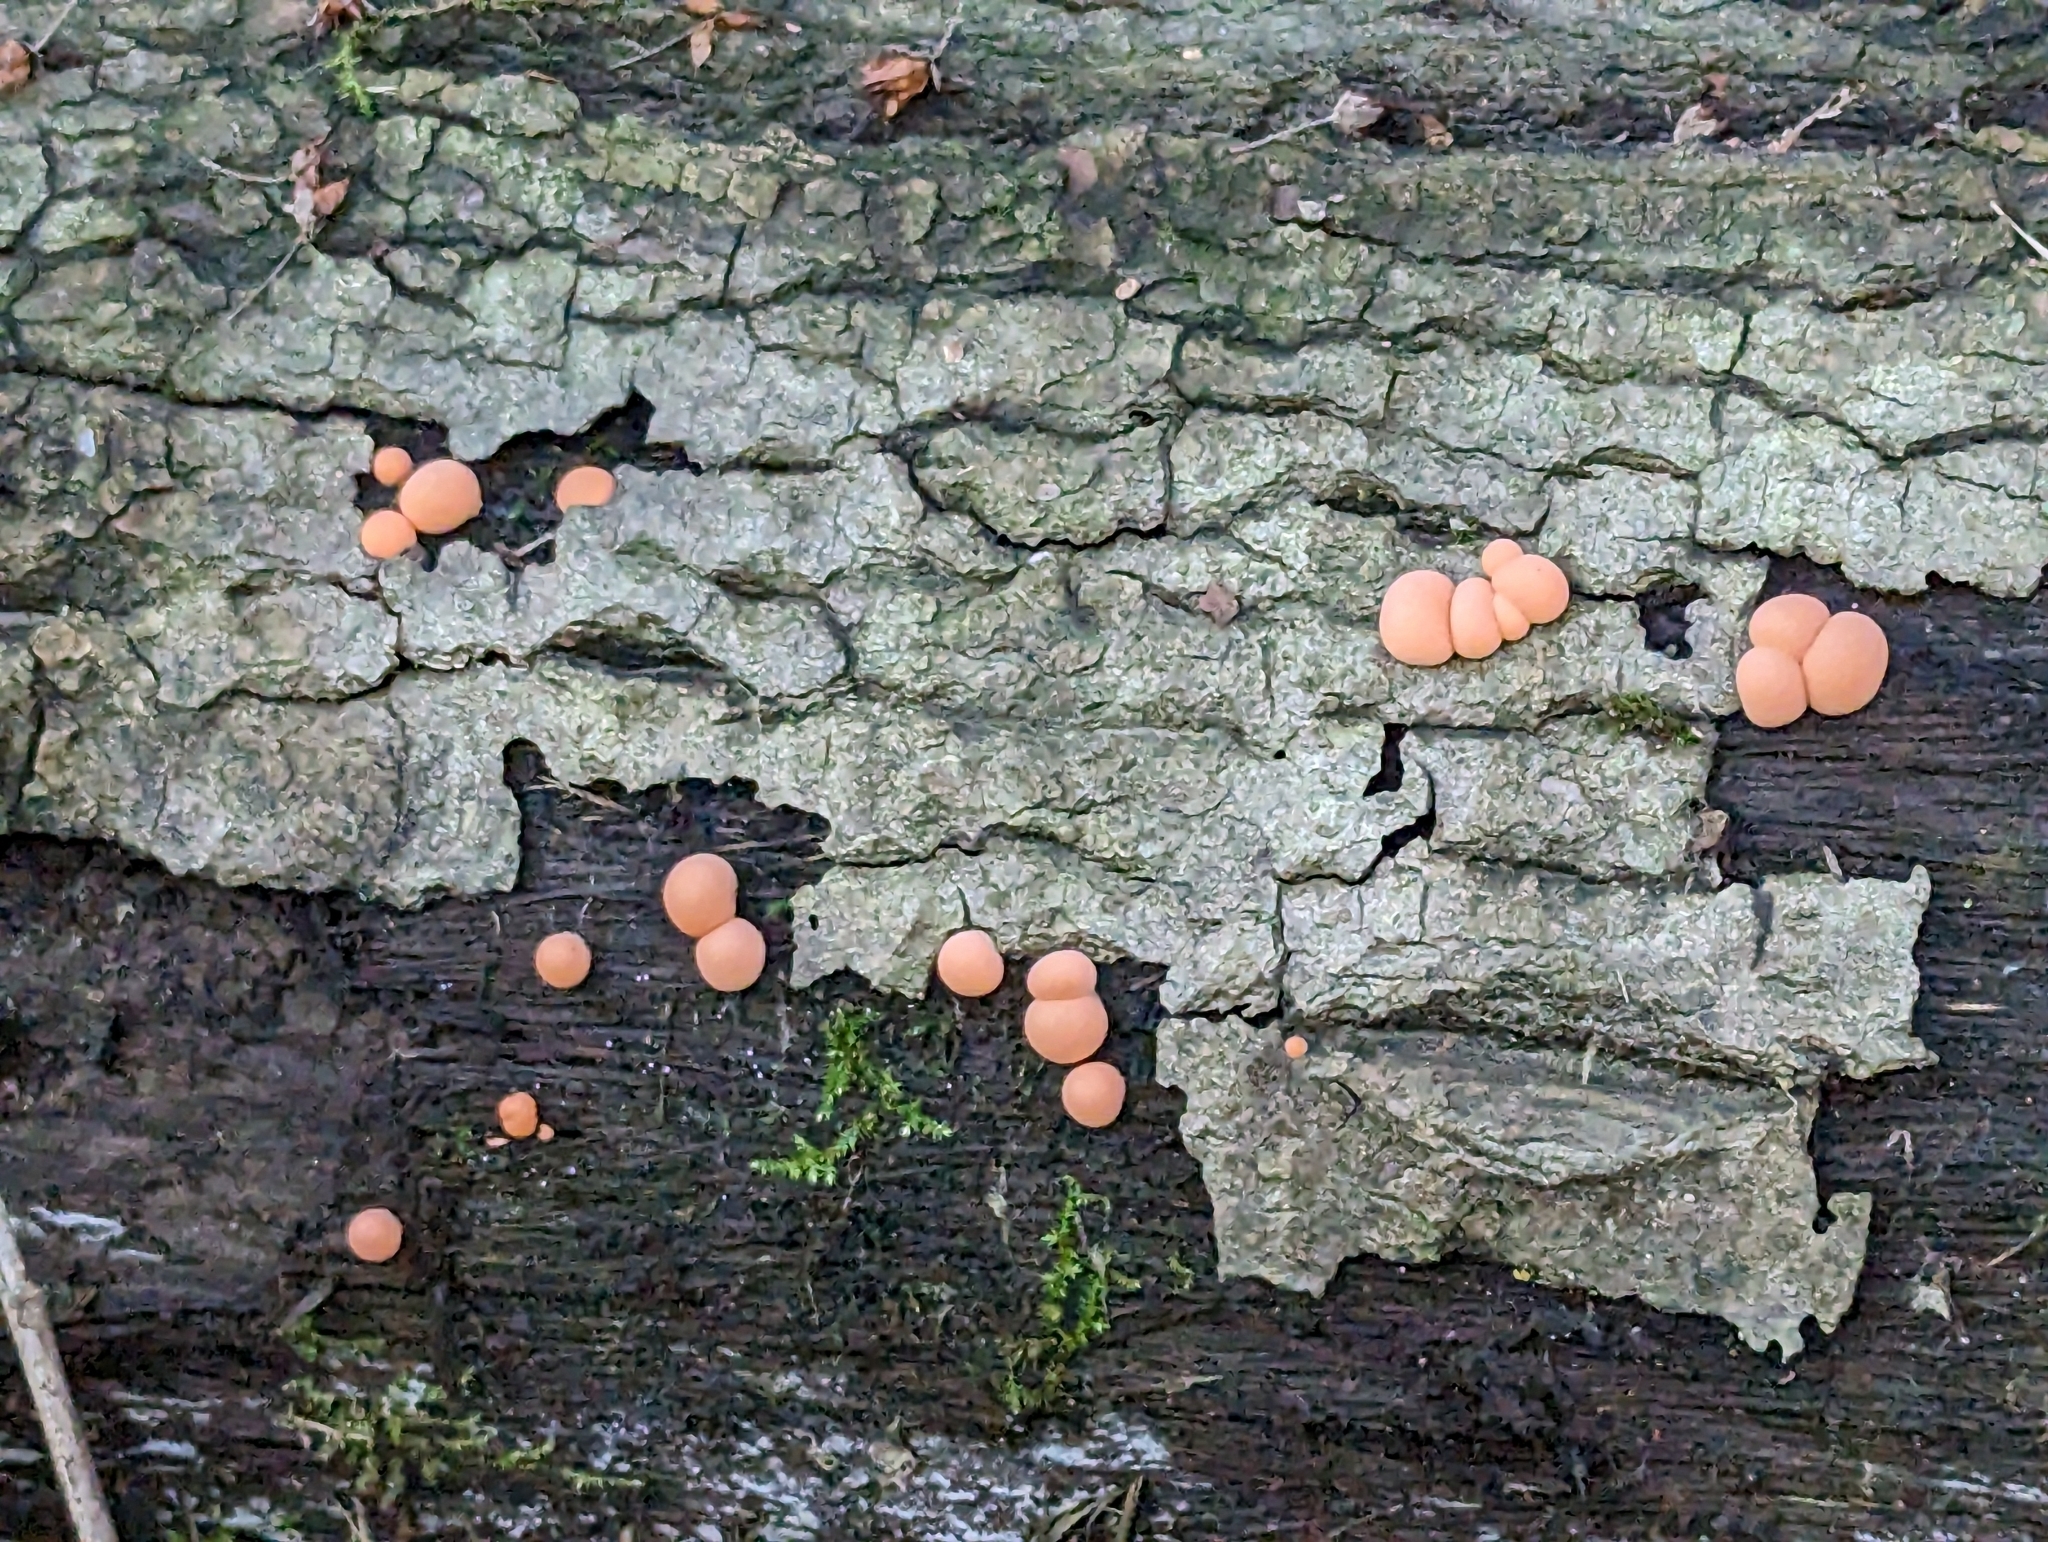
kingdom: Protozoa
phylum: Mycetozoa
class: Myxomycetes
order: Cribrariales
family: Tubiferaceae
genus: Lycogala
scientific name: Lycogala epidendrum
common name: Wolf's milk
